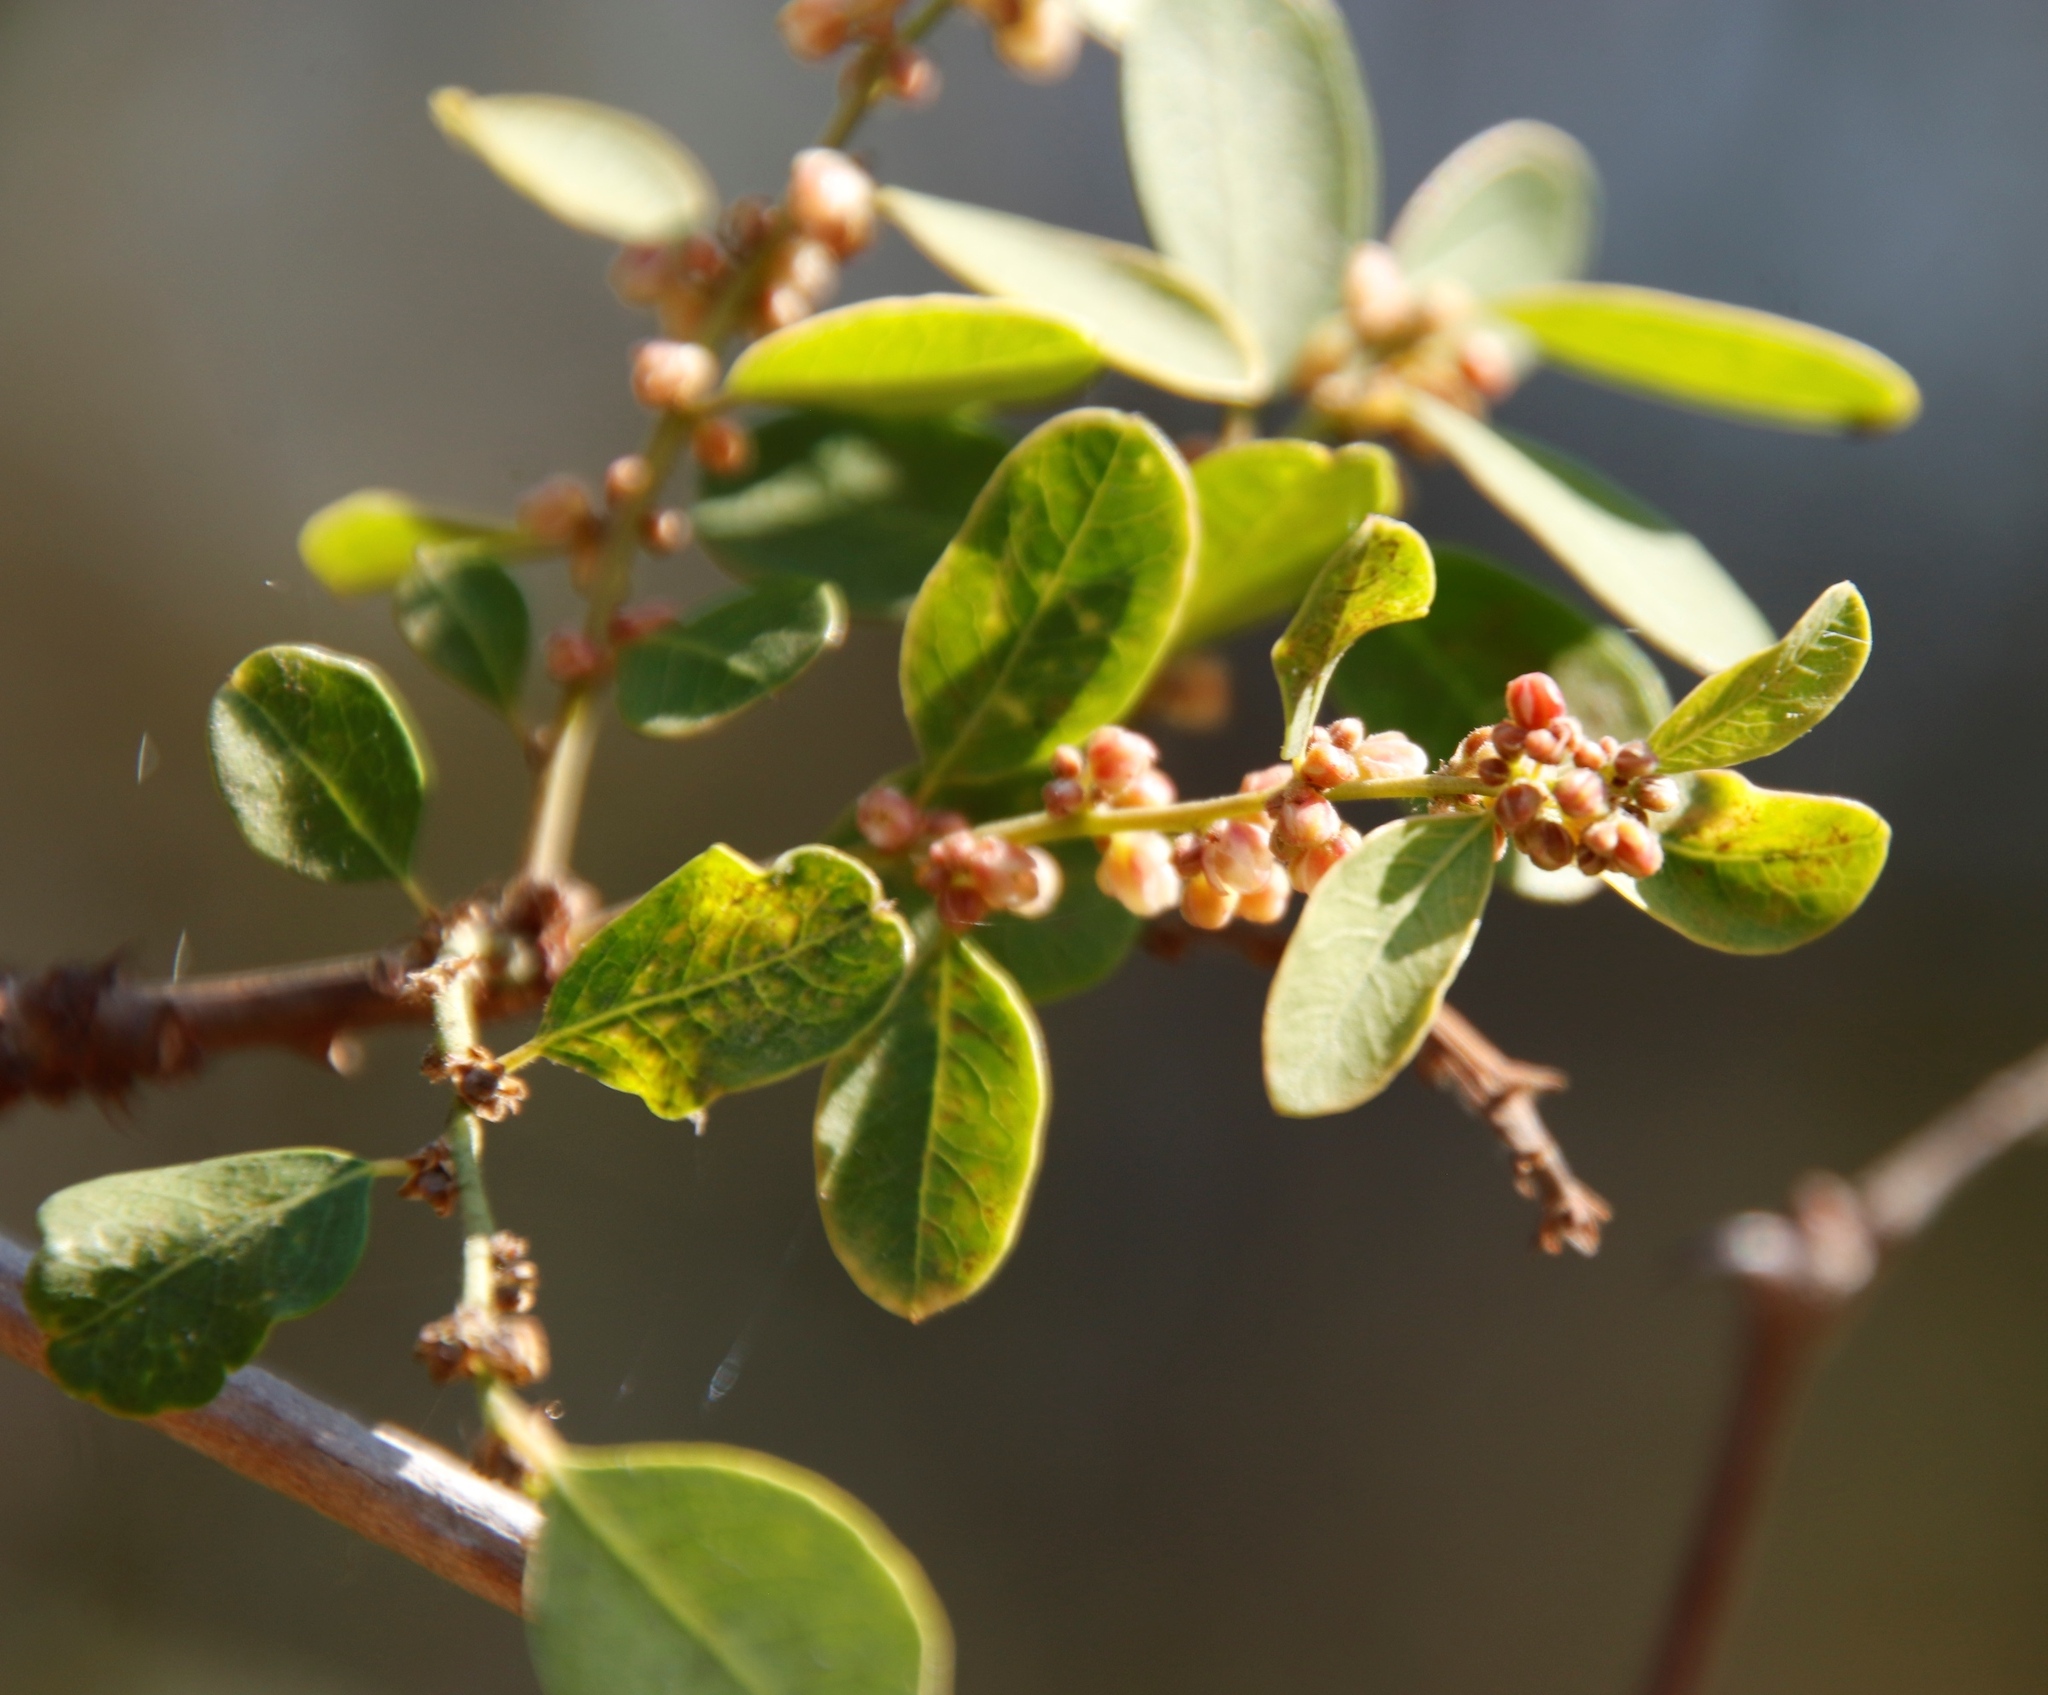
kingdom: Plantae
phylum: Tracheophyta
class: Magnoliopsida
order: Malpighiales
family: Phyllanthaceae
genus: Phyllanthus
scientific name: Phyllanthus reticulatus
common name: Potato bush
